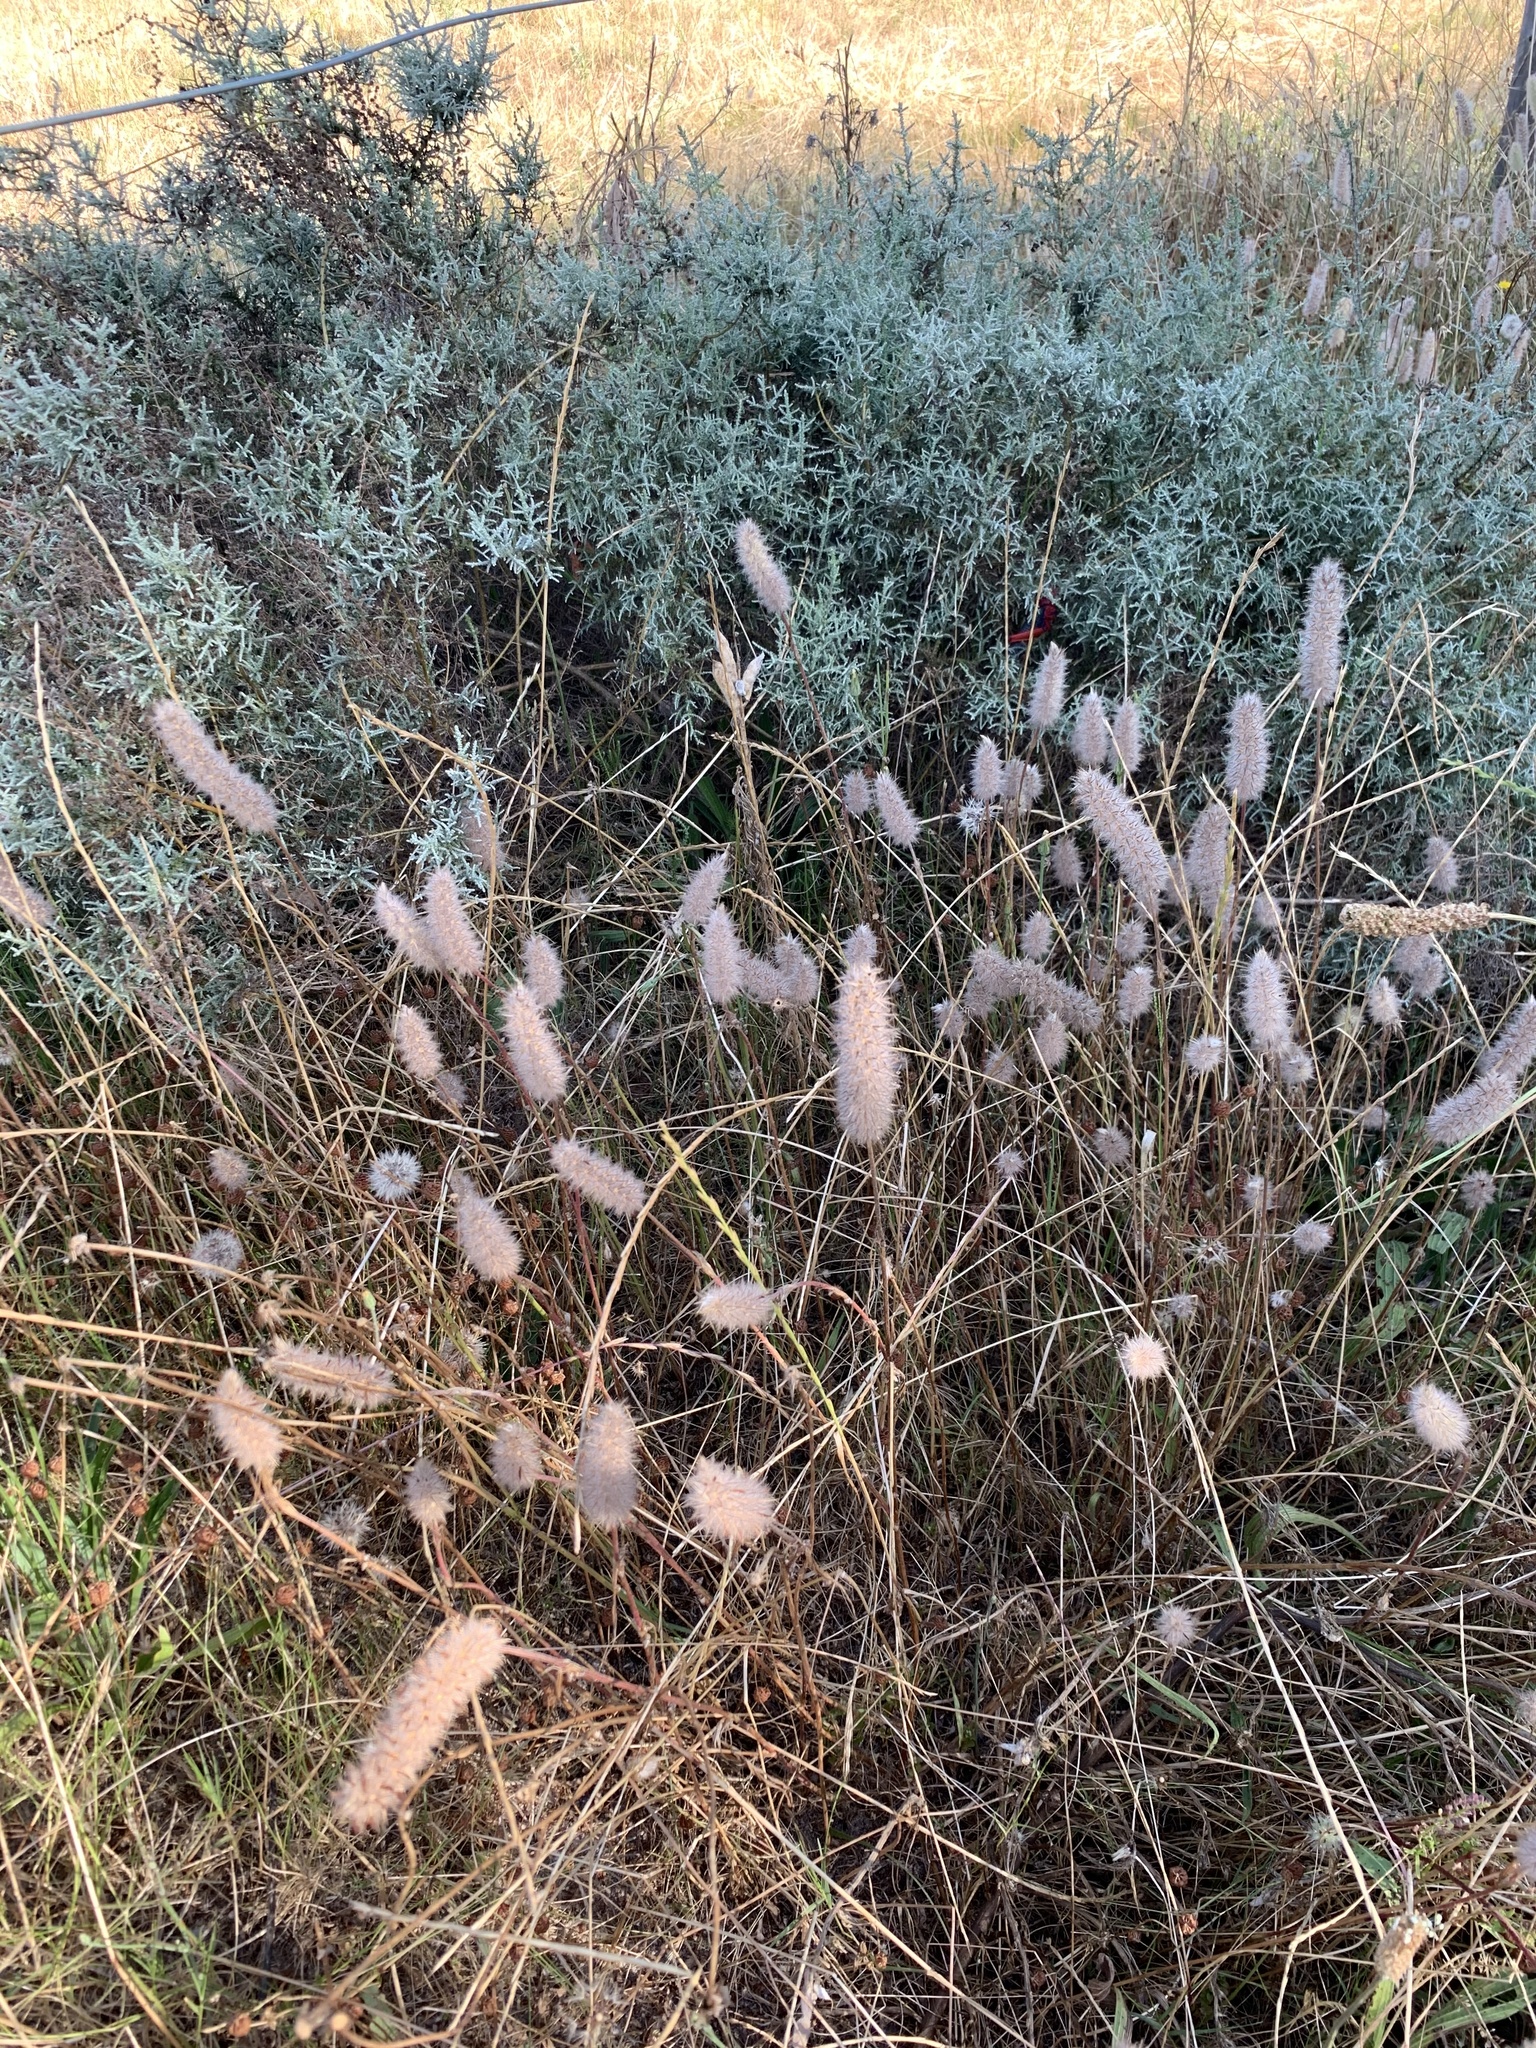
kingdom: Plantae
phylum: Tracheophyta
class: Magnoliopsida
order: Fabales
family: Fabaceae
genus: Trifolium
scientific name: Trifolium angustifolium
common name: Narrow clover
